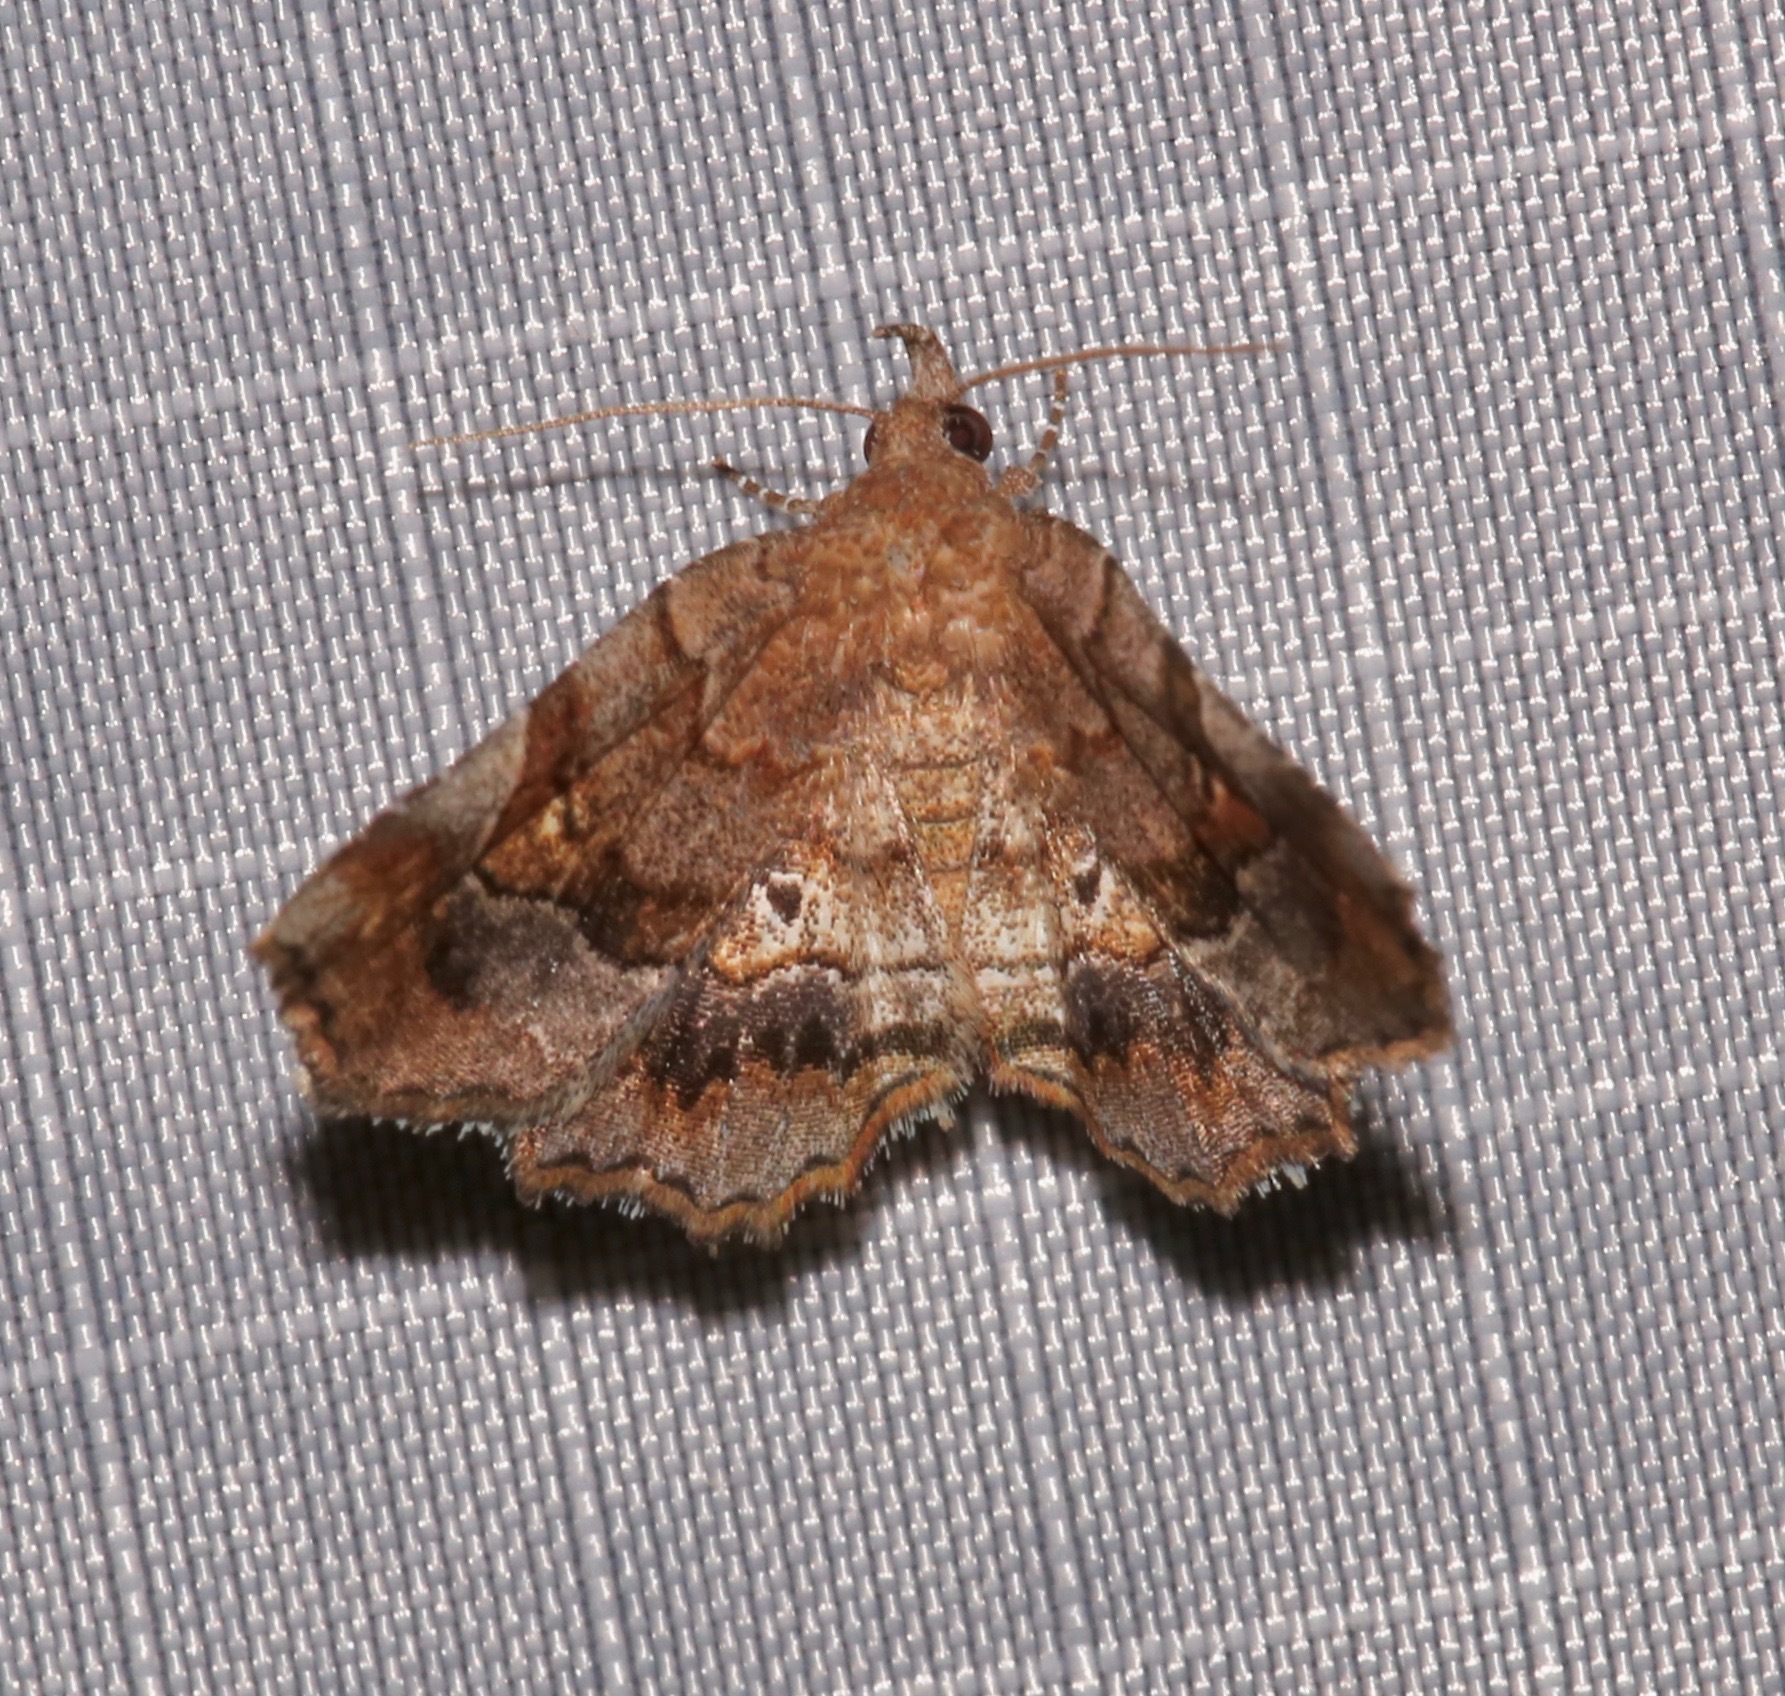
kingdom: Animalia
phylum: Arthropoda
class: Insecta
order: Lepidoptera
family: Erebidae
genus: Pangrapta
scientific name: Pangrapta decoralis
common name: Decorated owlet
